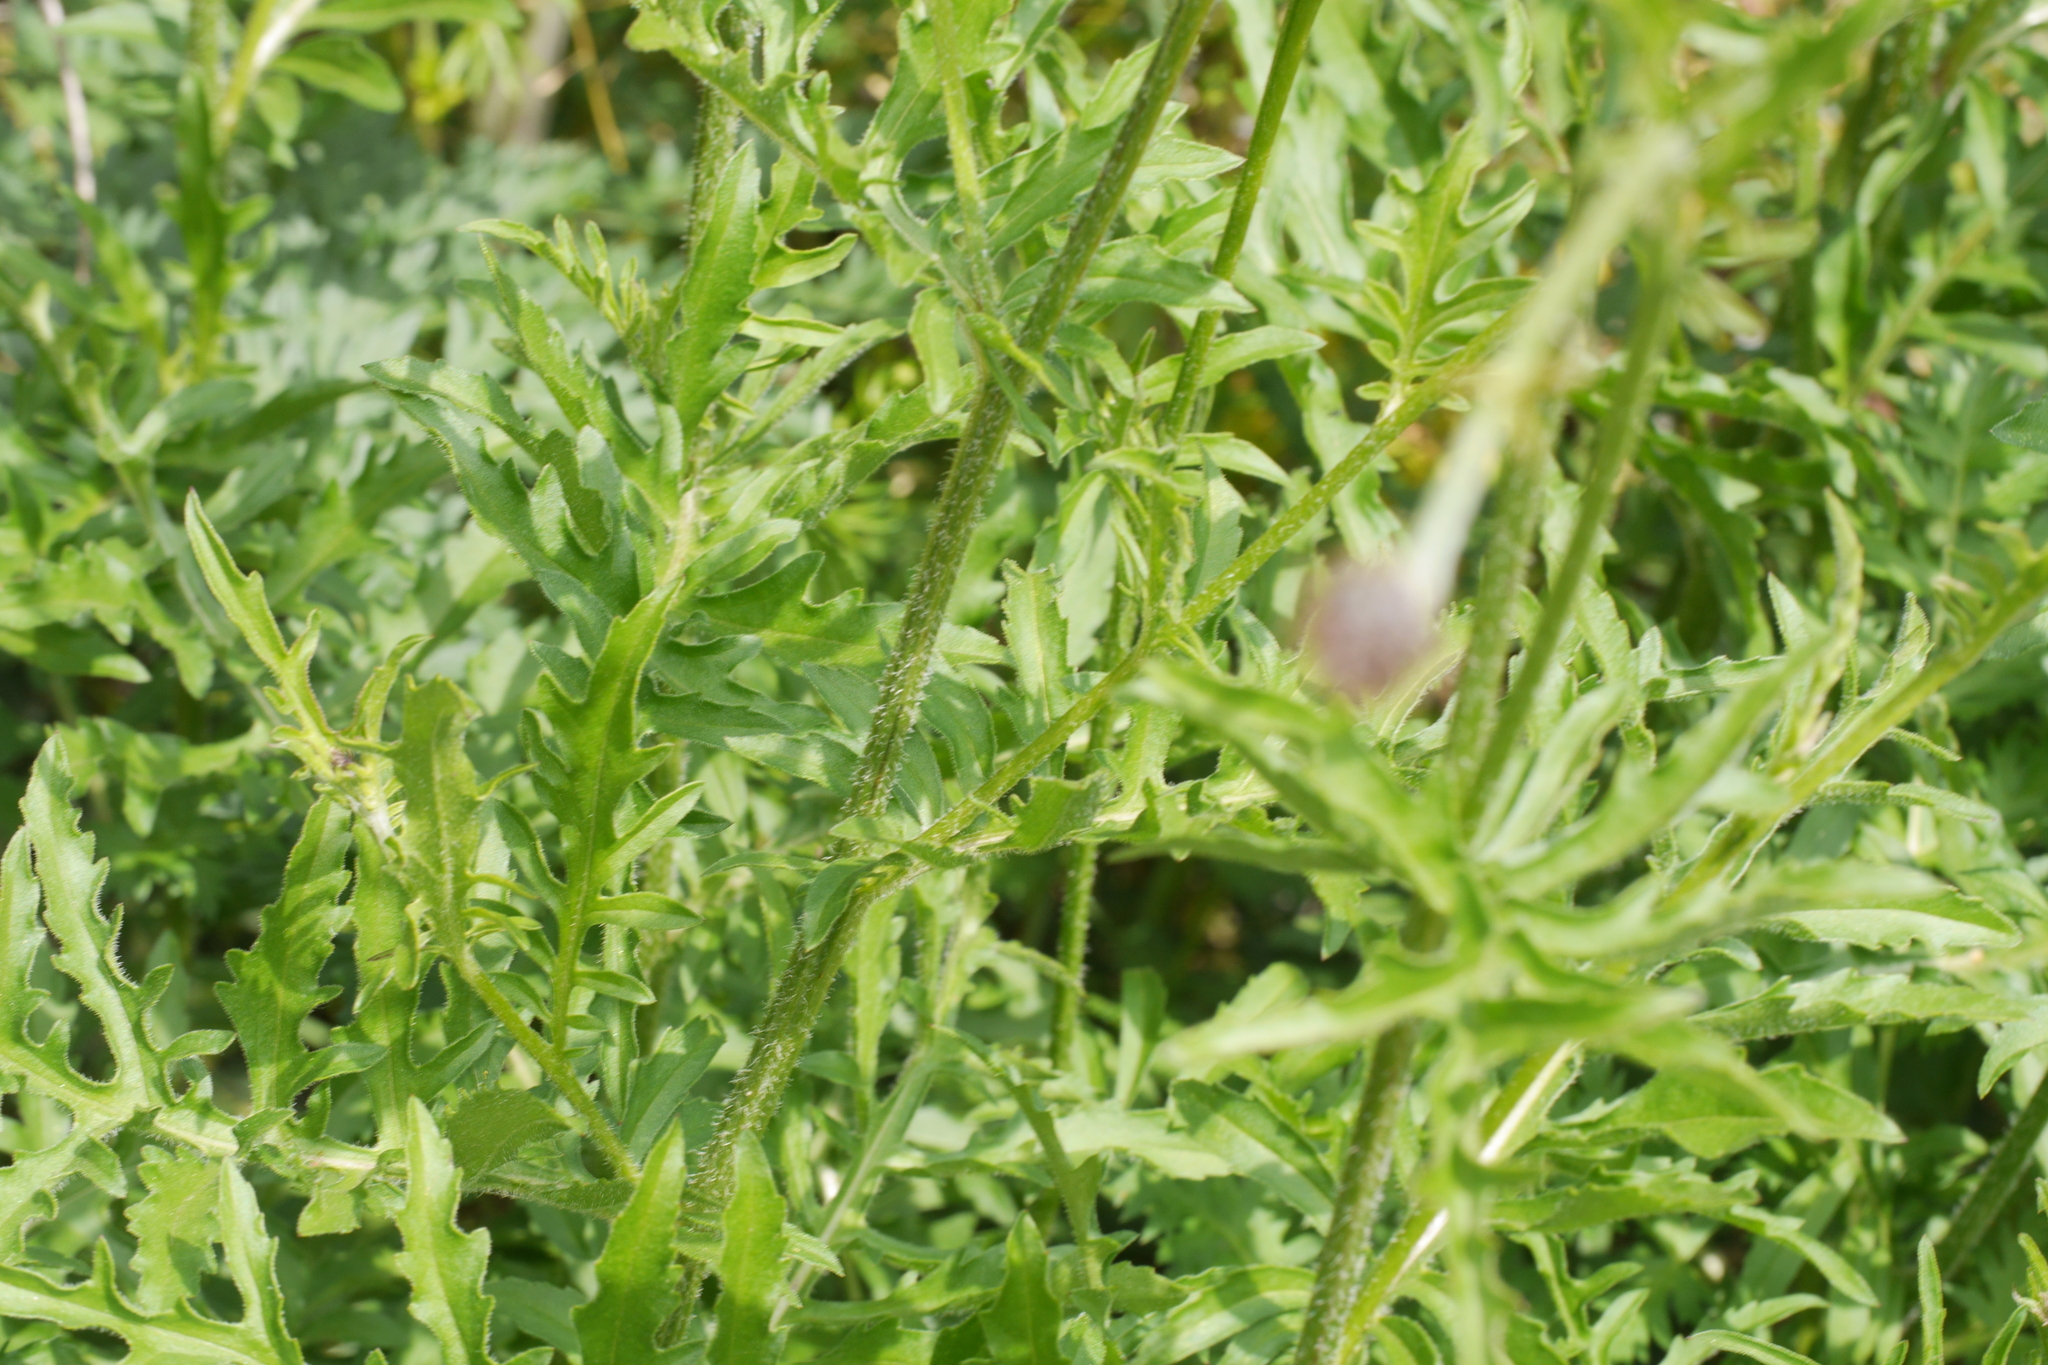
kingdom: Plantae
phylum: Tracheophyta
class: Magnoliopsida
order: Asterales
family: Asteraceae
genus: Centaurea
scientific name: Centaurea scabiosa
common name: Greater knapweed
